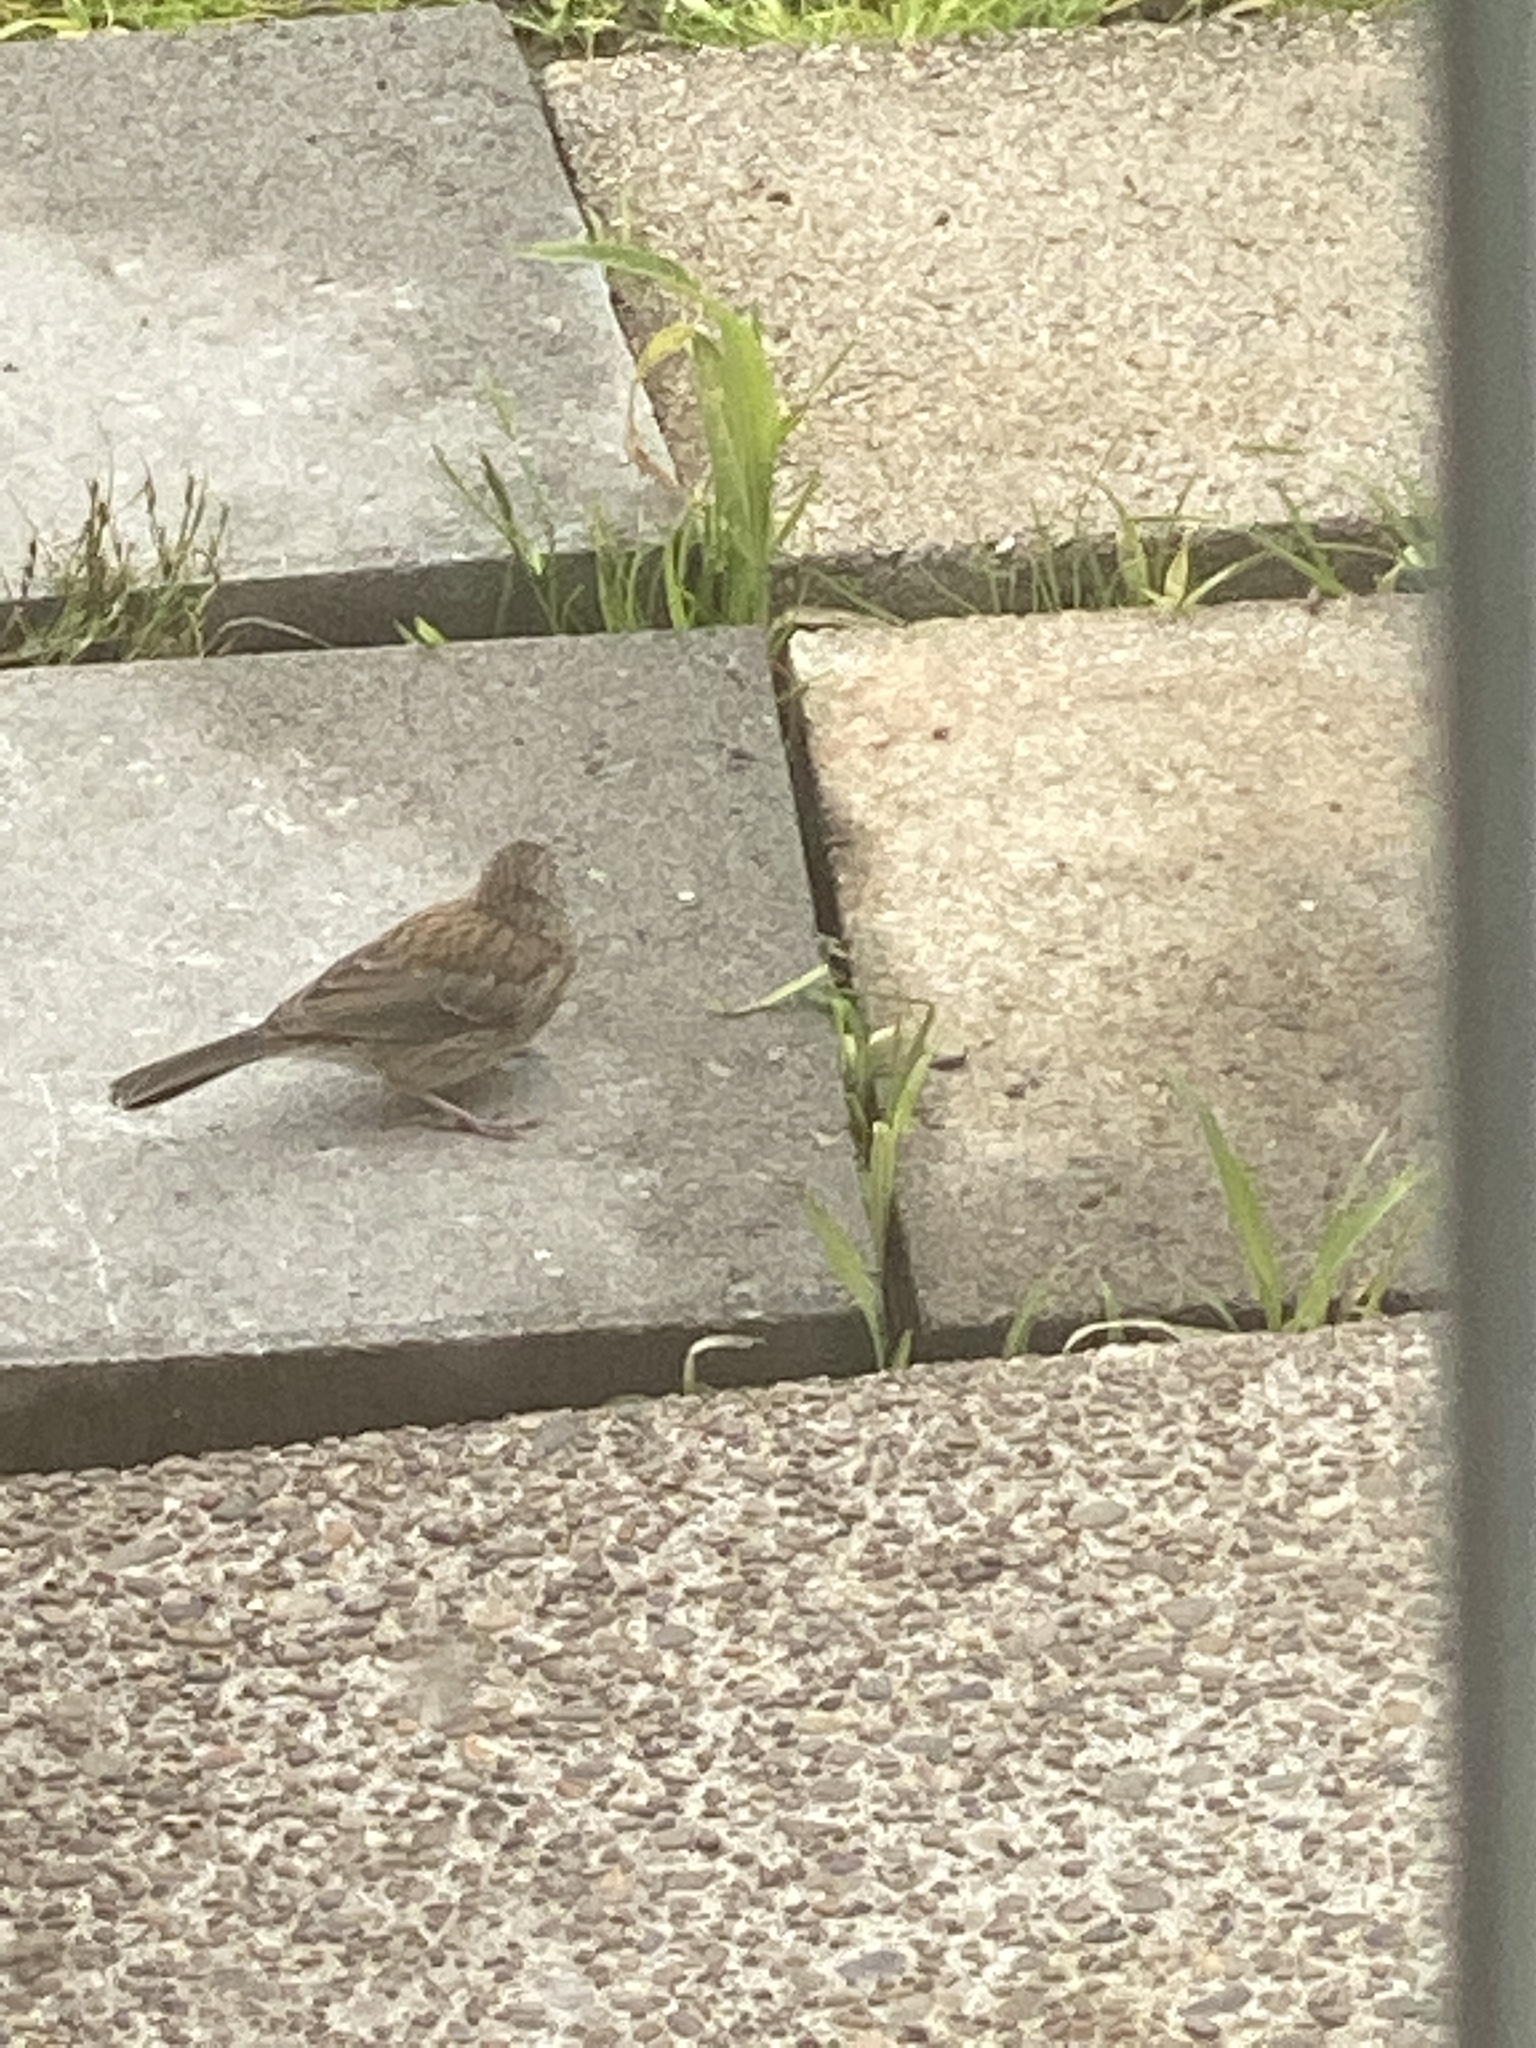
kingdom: Animalia
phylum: Chordata
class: Aves
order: Passeriformes
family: Passerellidae
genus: Junco
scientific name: Junco hyemalis
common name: Dark-eyed junco
